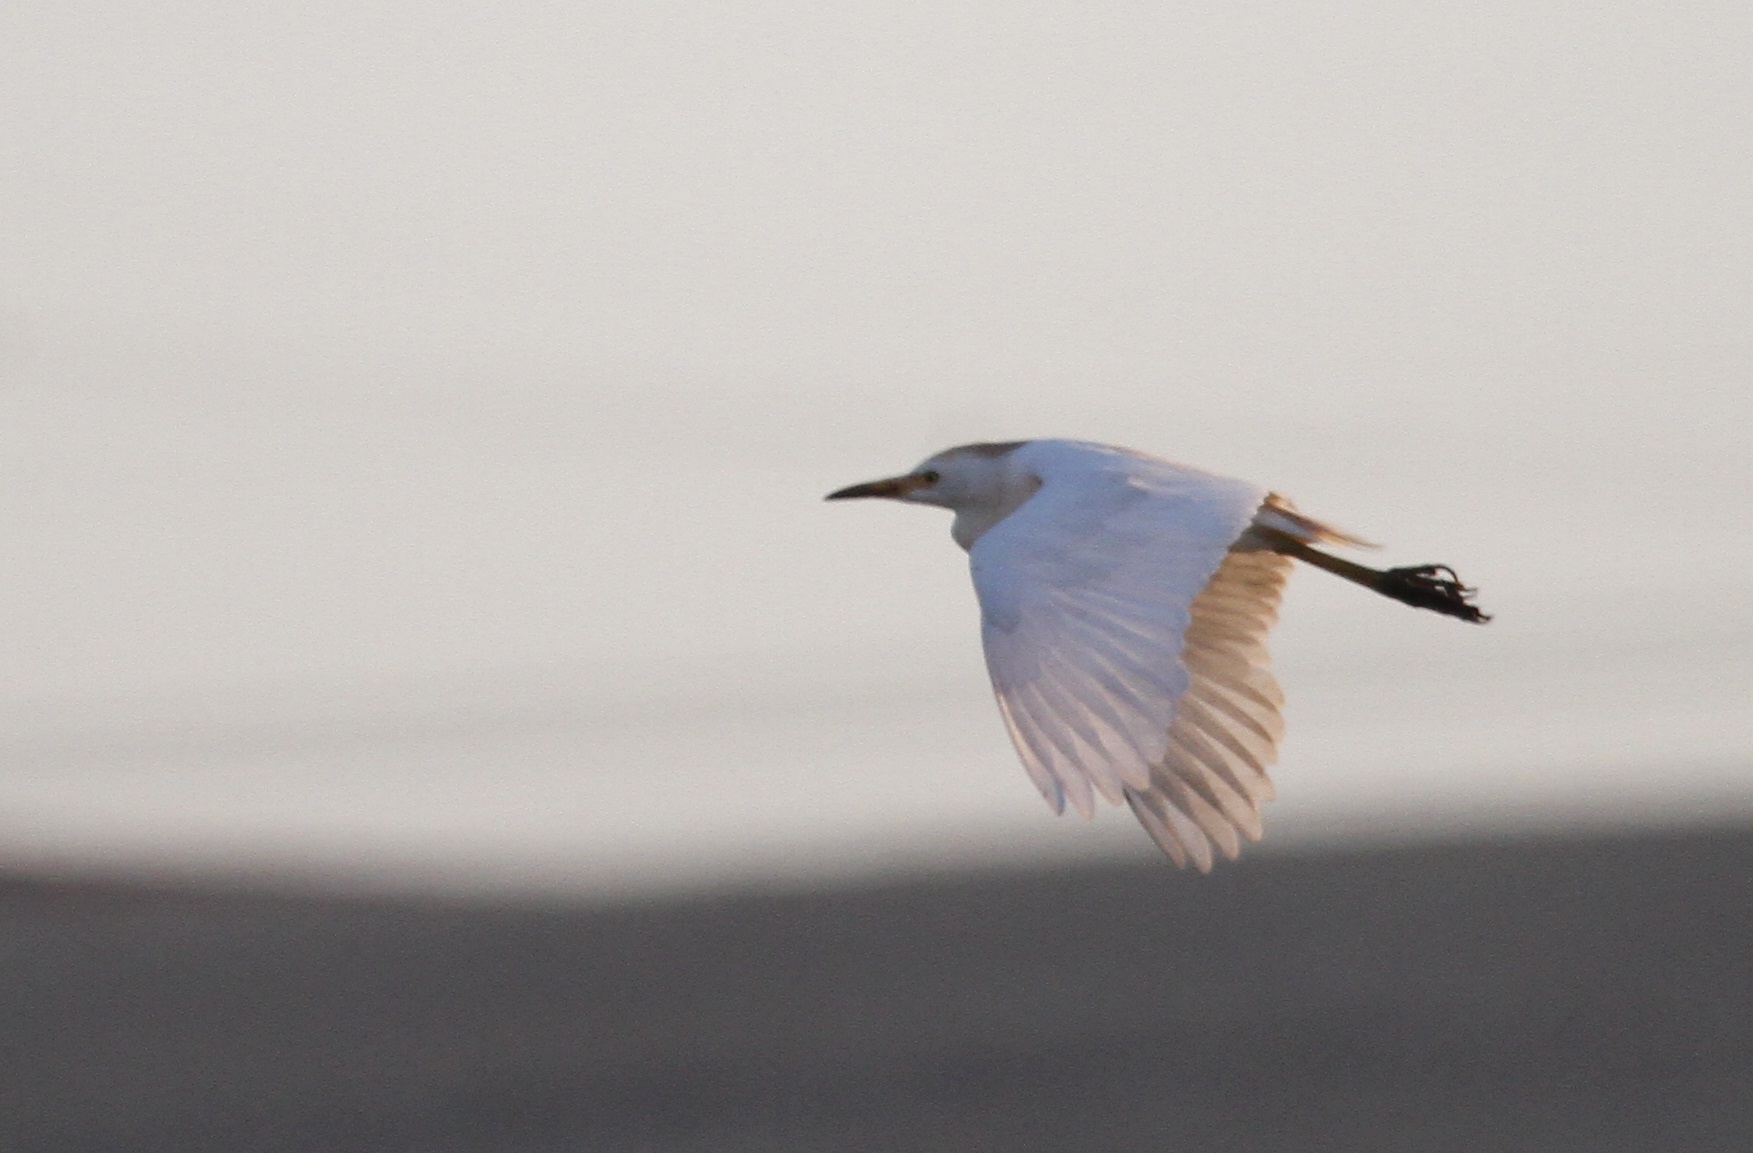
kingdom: Animalia
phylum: Chordata
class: Aves
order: Pelecaniformes
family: Ardeidae
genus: Bubulcus
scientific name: Bubulcus ibis
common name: Cattle egret
